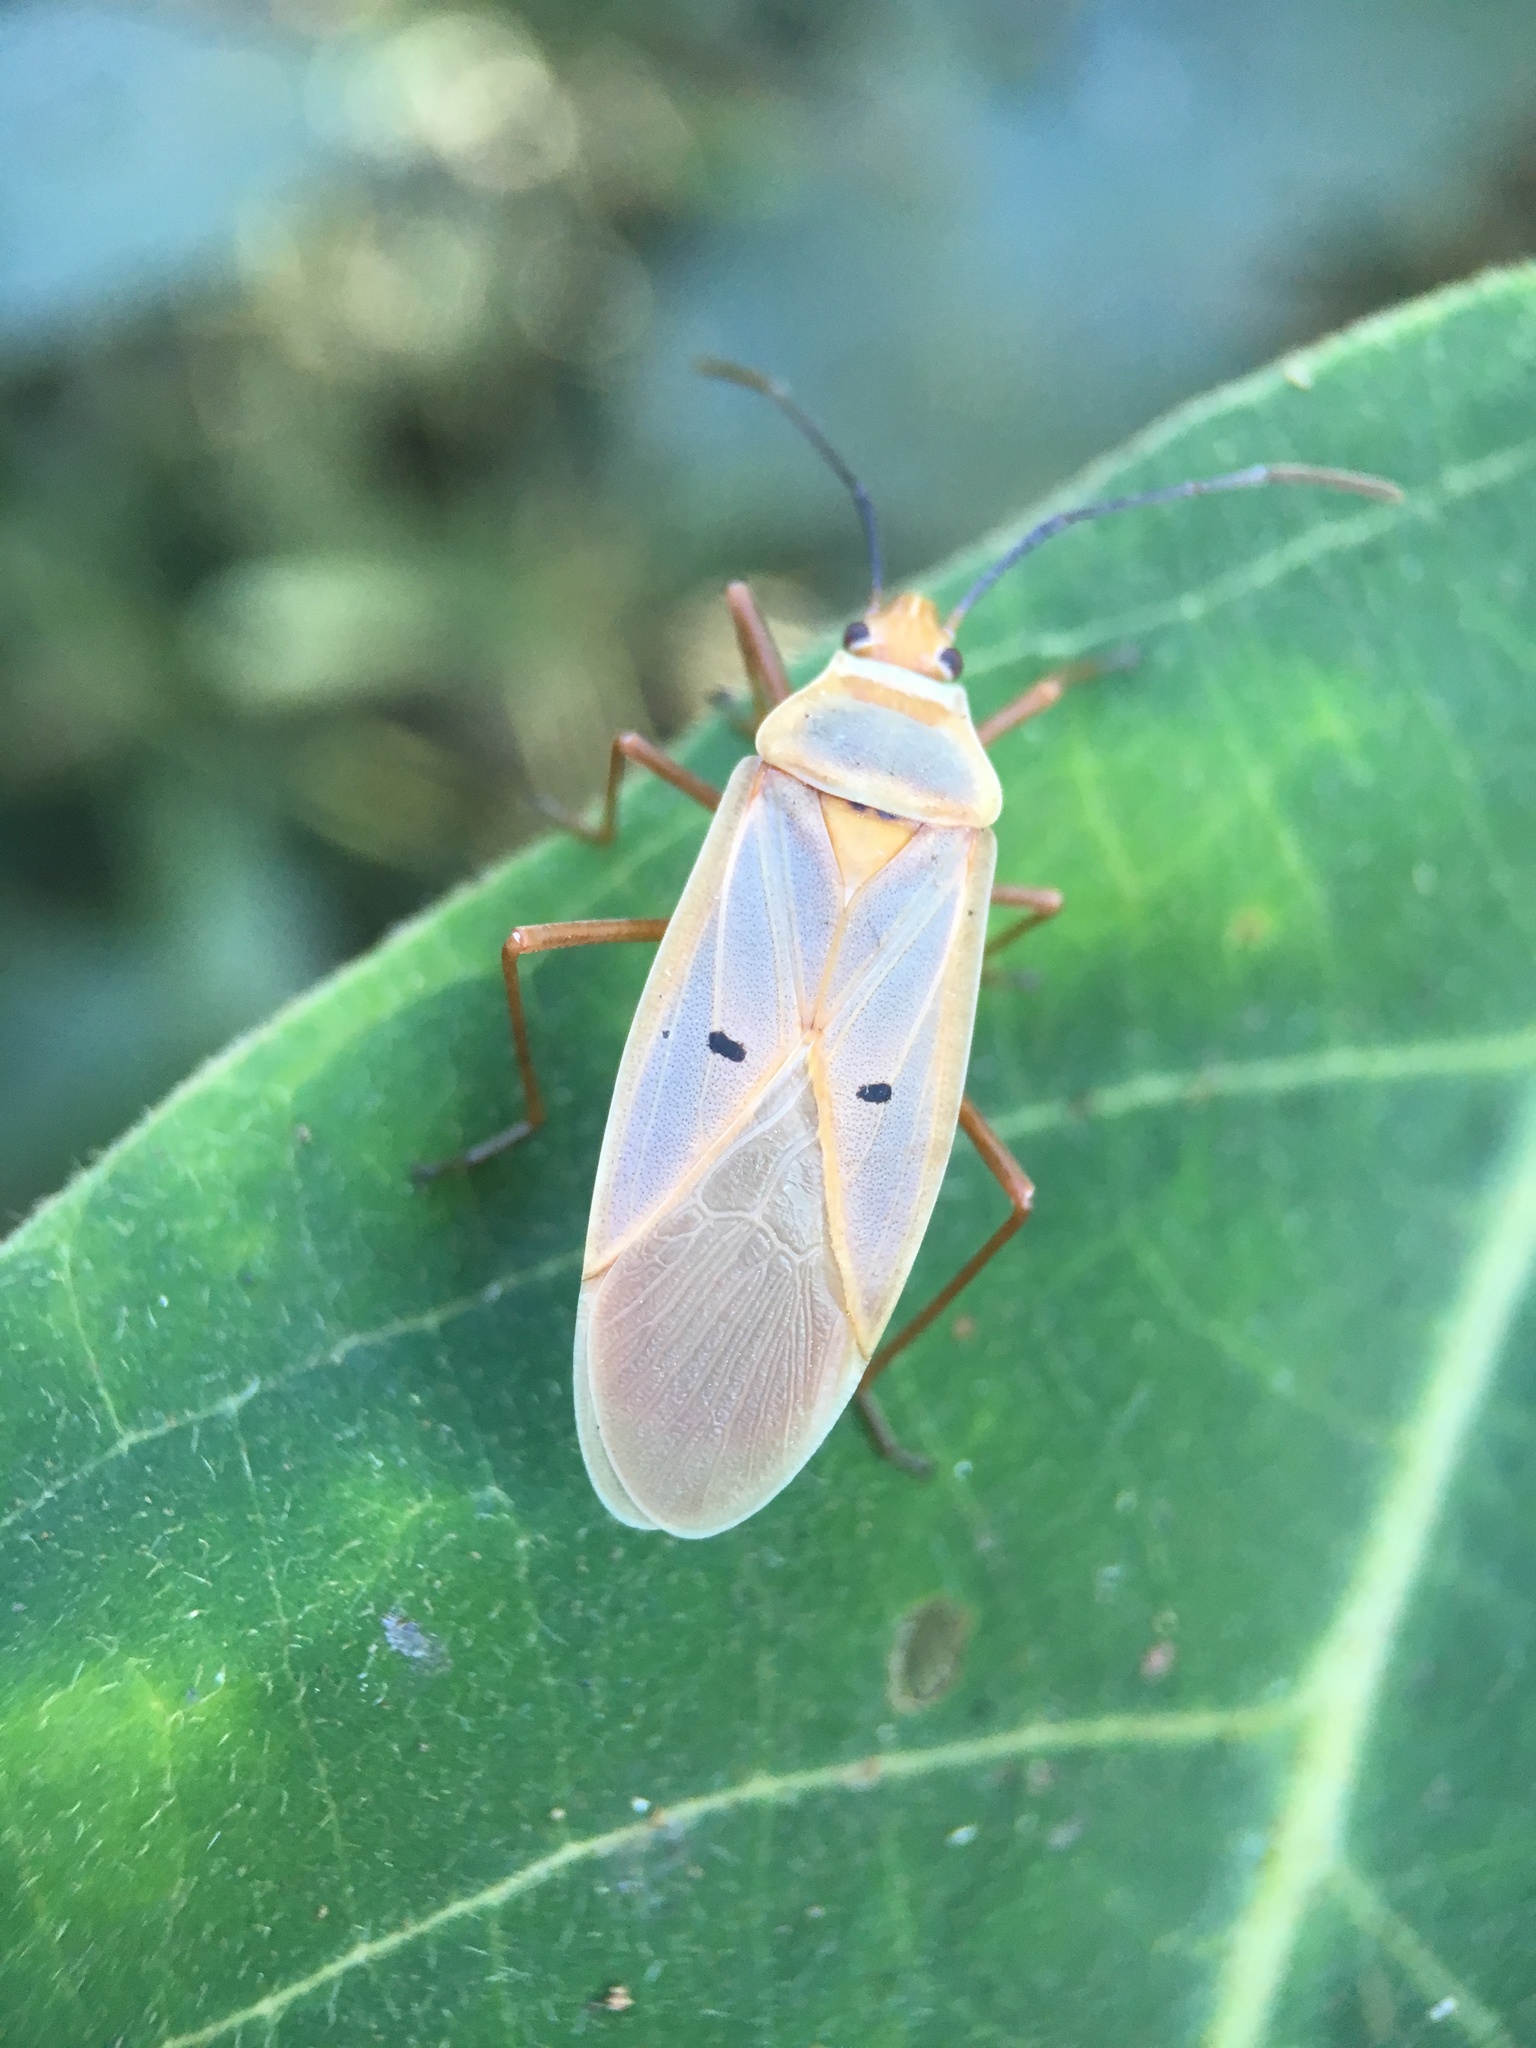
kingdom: Animalia
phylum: Arthropoda
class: Insecta
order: Hemiptera
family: Pyrrhocoridae
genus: Dysdercus
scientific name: Dysdercus evanescens
